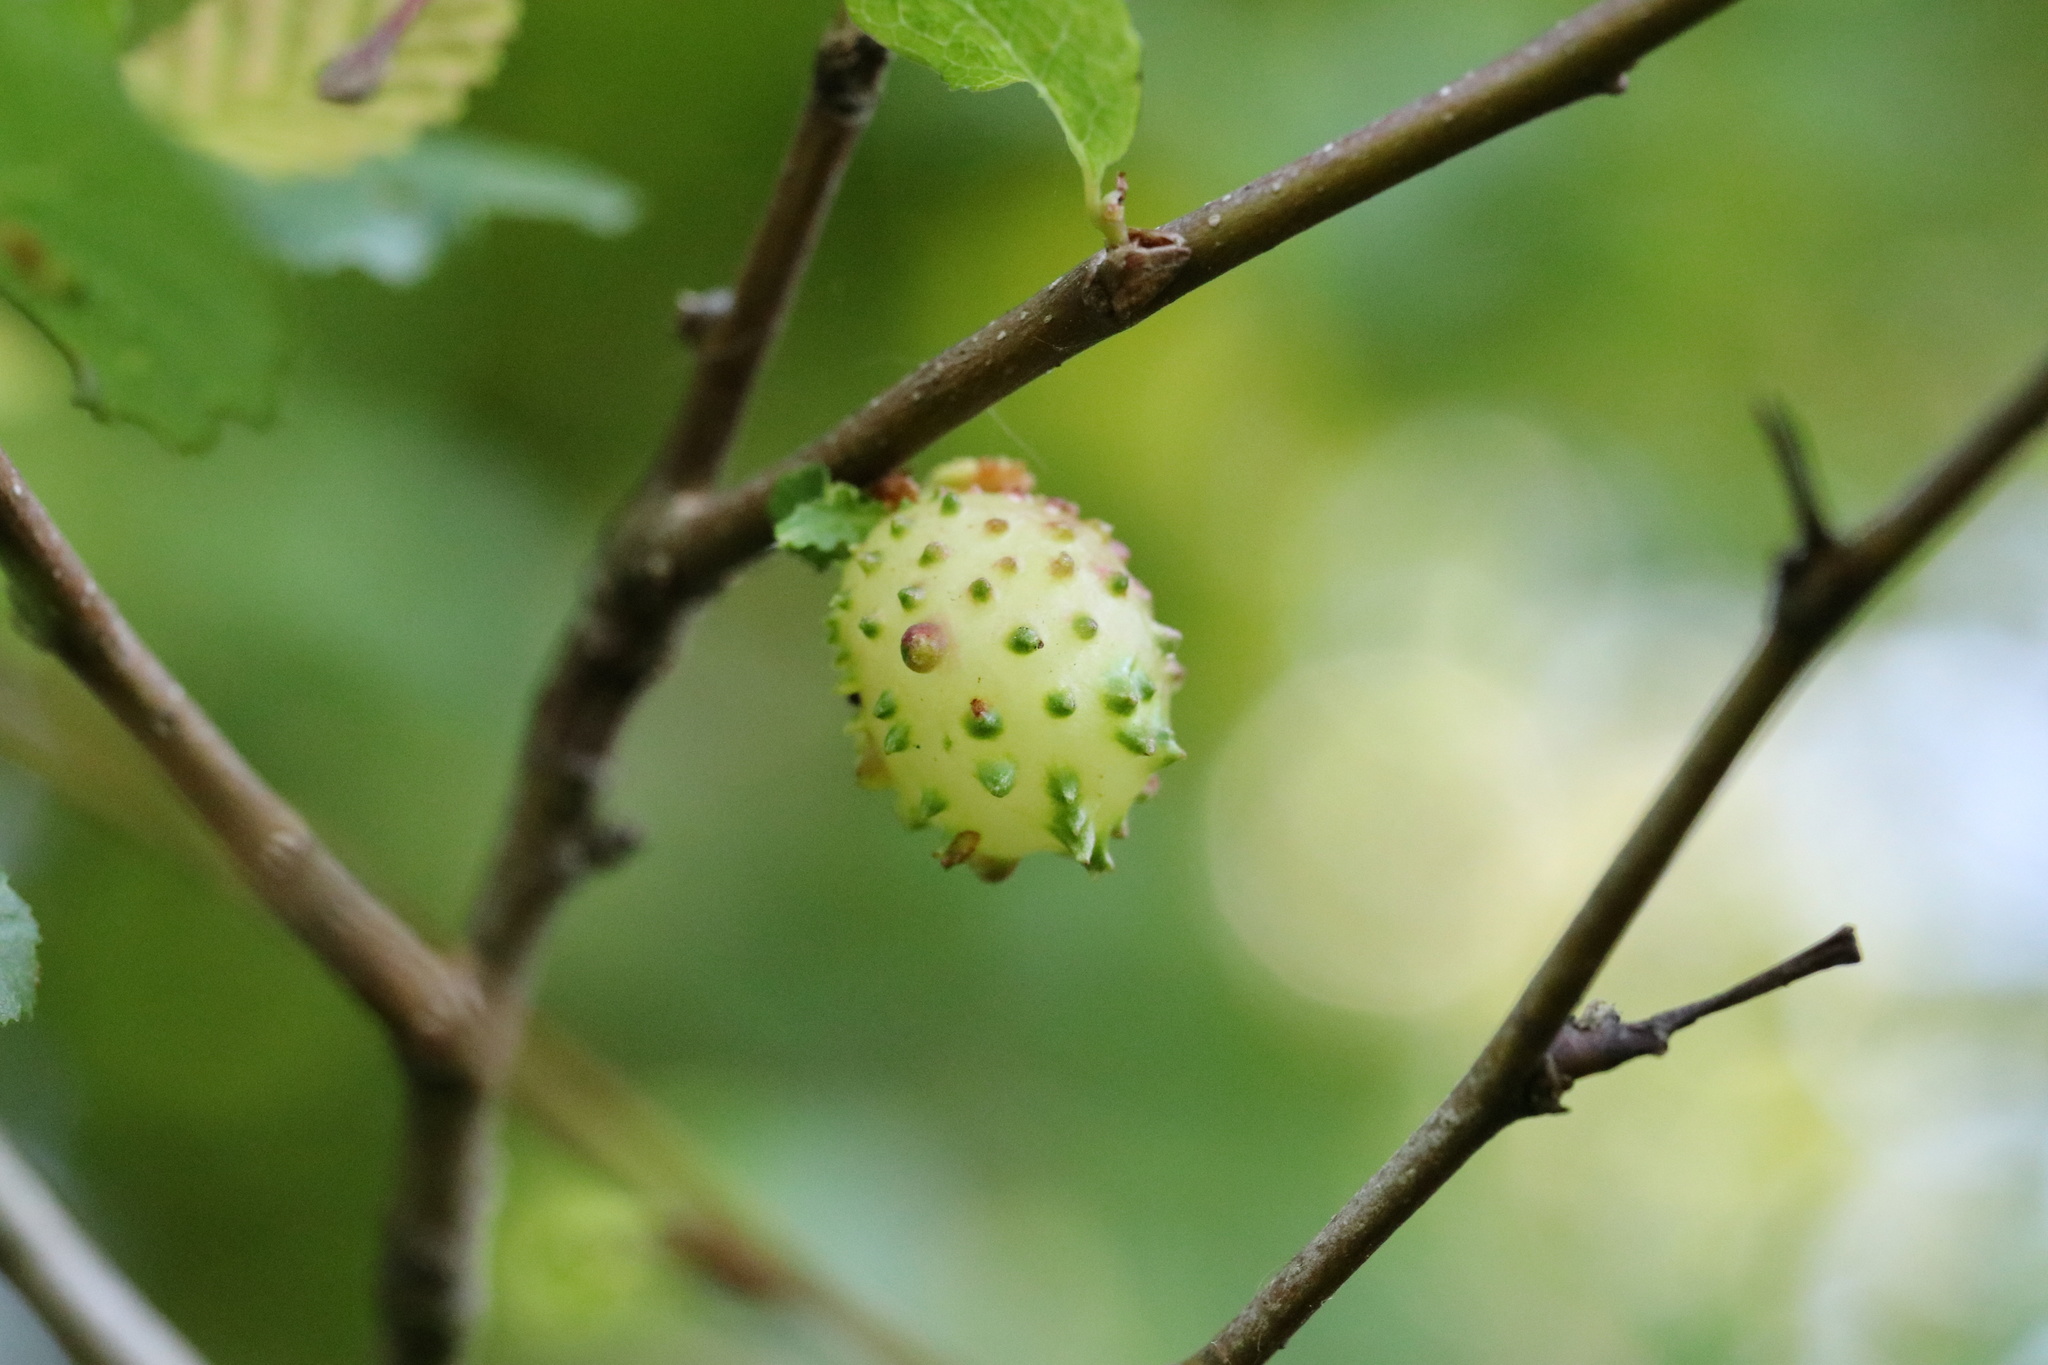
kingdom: Animalia
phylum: Arthropoda
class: Insecta
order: Hymenoptera
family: Pteromalidae
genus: Espinosa
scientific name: Espinosa nothofagi
